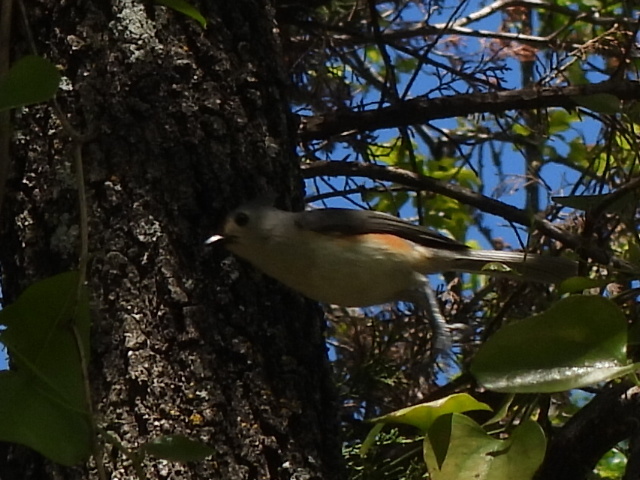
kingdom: Animalia
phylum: Chordata
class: Aves
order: Passeriformes
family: Paridae
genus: Baeolophus
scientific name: Baeolophus bicolor
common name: Tufted titmouse
